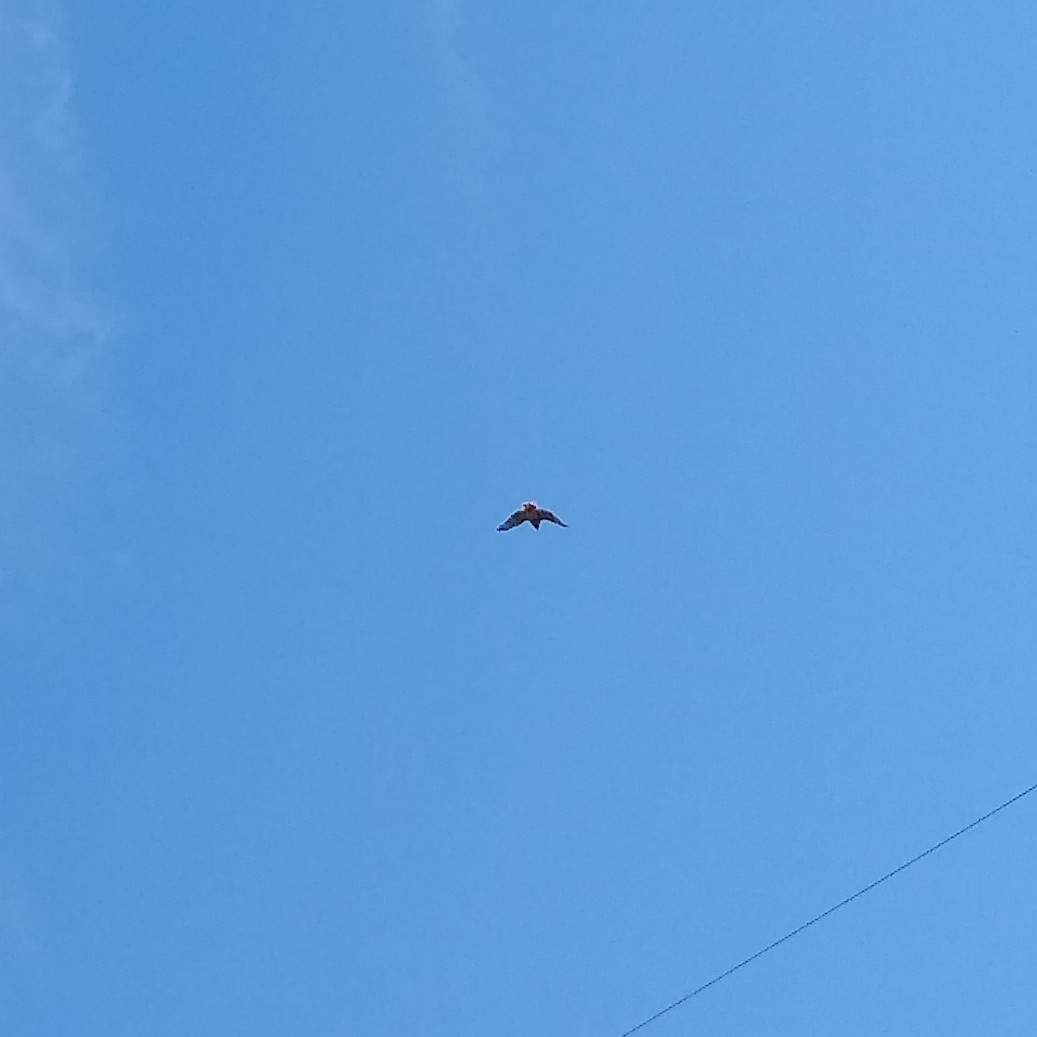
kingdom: Animalia
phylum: Chordata
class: Aves
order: Accipitriformes
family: Accipitridae
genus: Buteo
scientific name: Buteo jamaicensis
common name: Red-tailed hawk
